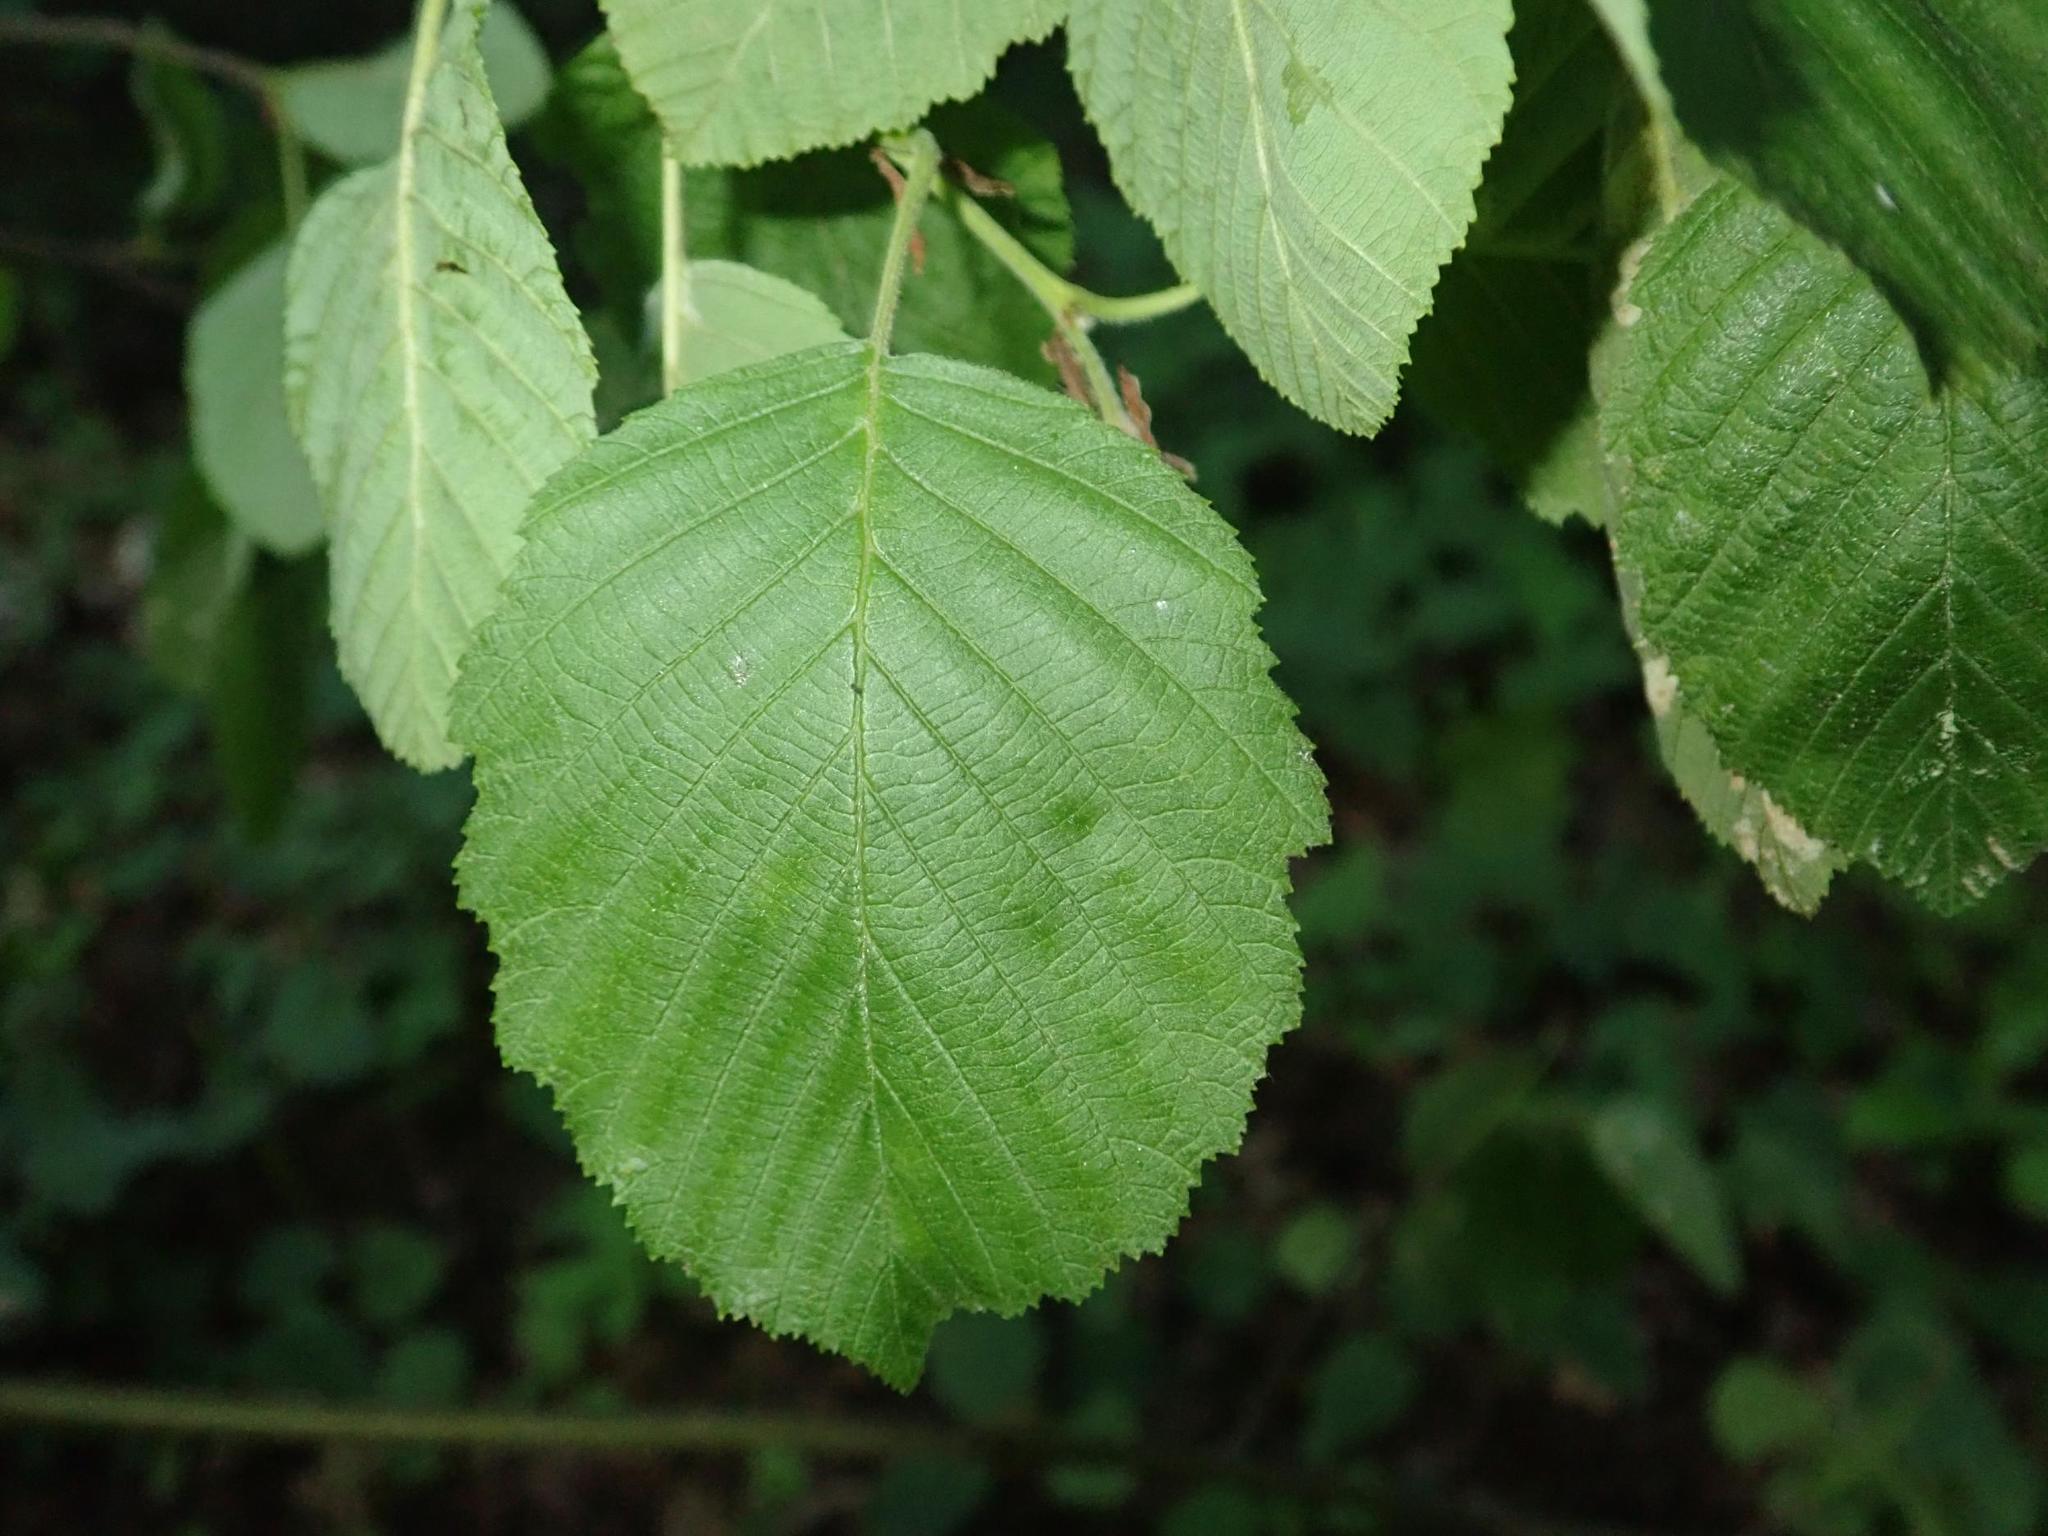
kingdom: Plantae
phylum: Tracheophyta
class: Magnoliopsida
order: Fagales
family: Betulaceae
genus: Alnus
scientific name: Alnus incana
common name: Grey alder
